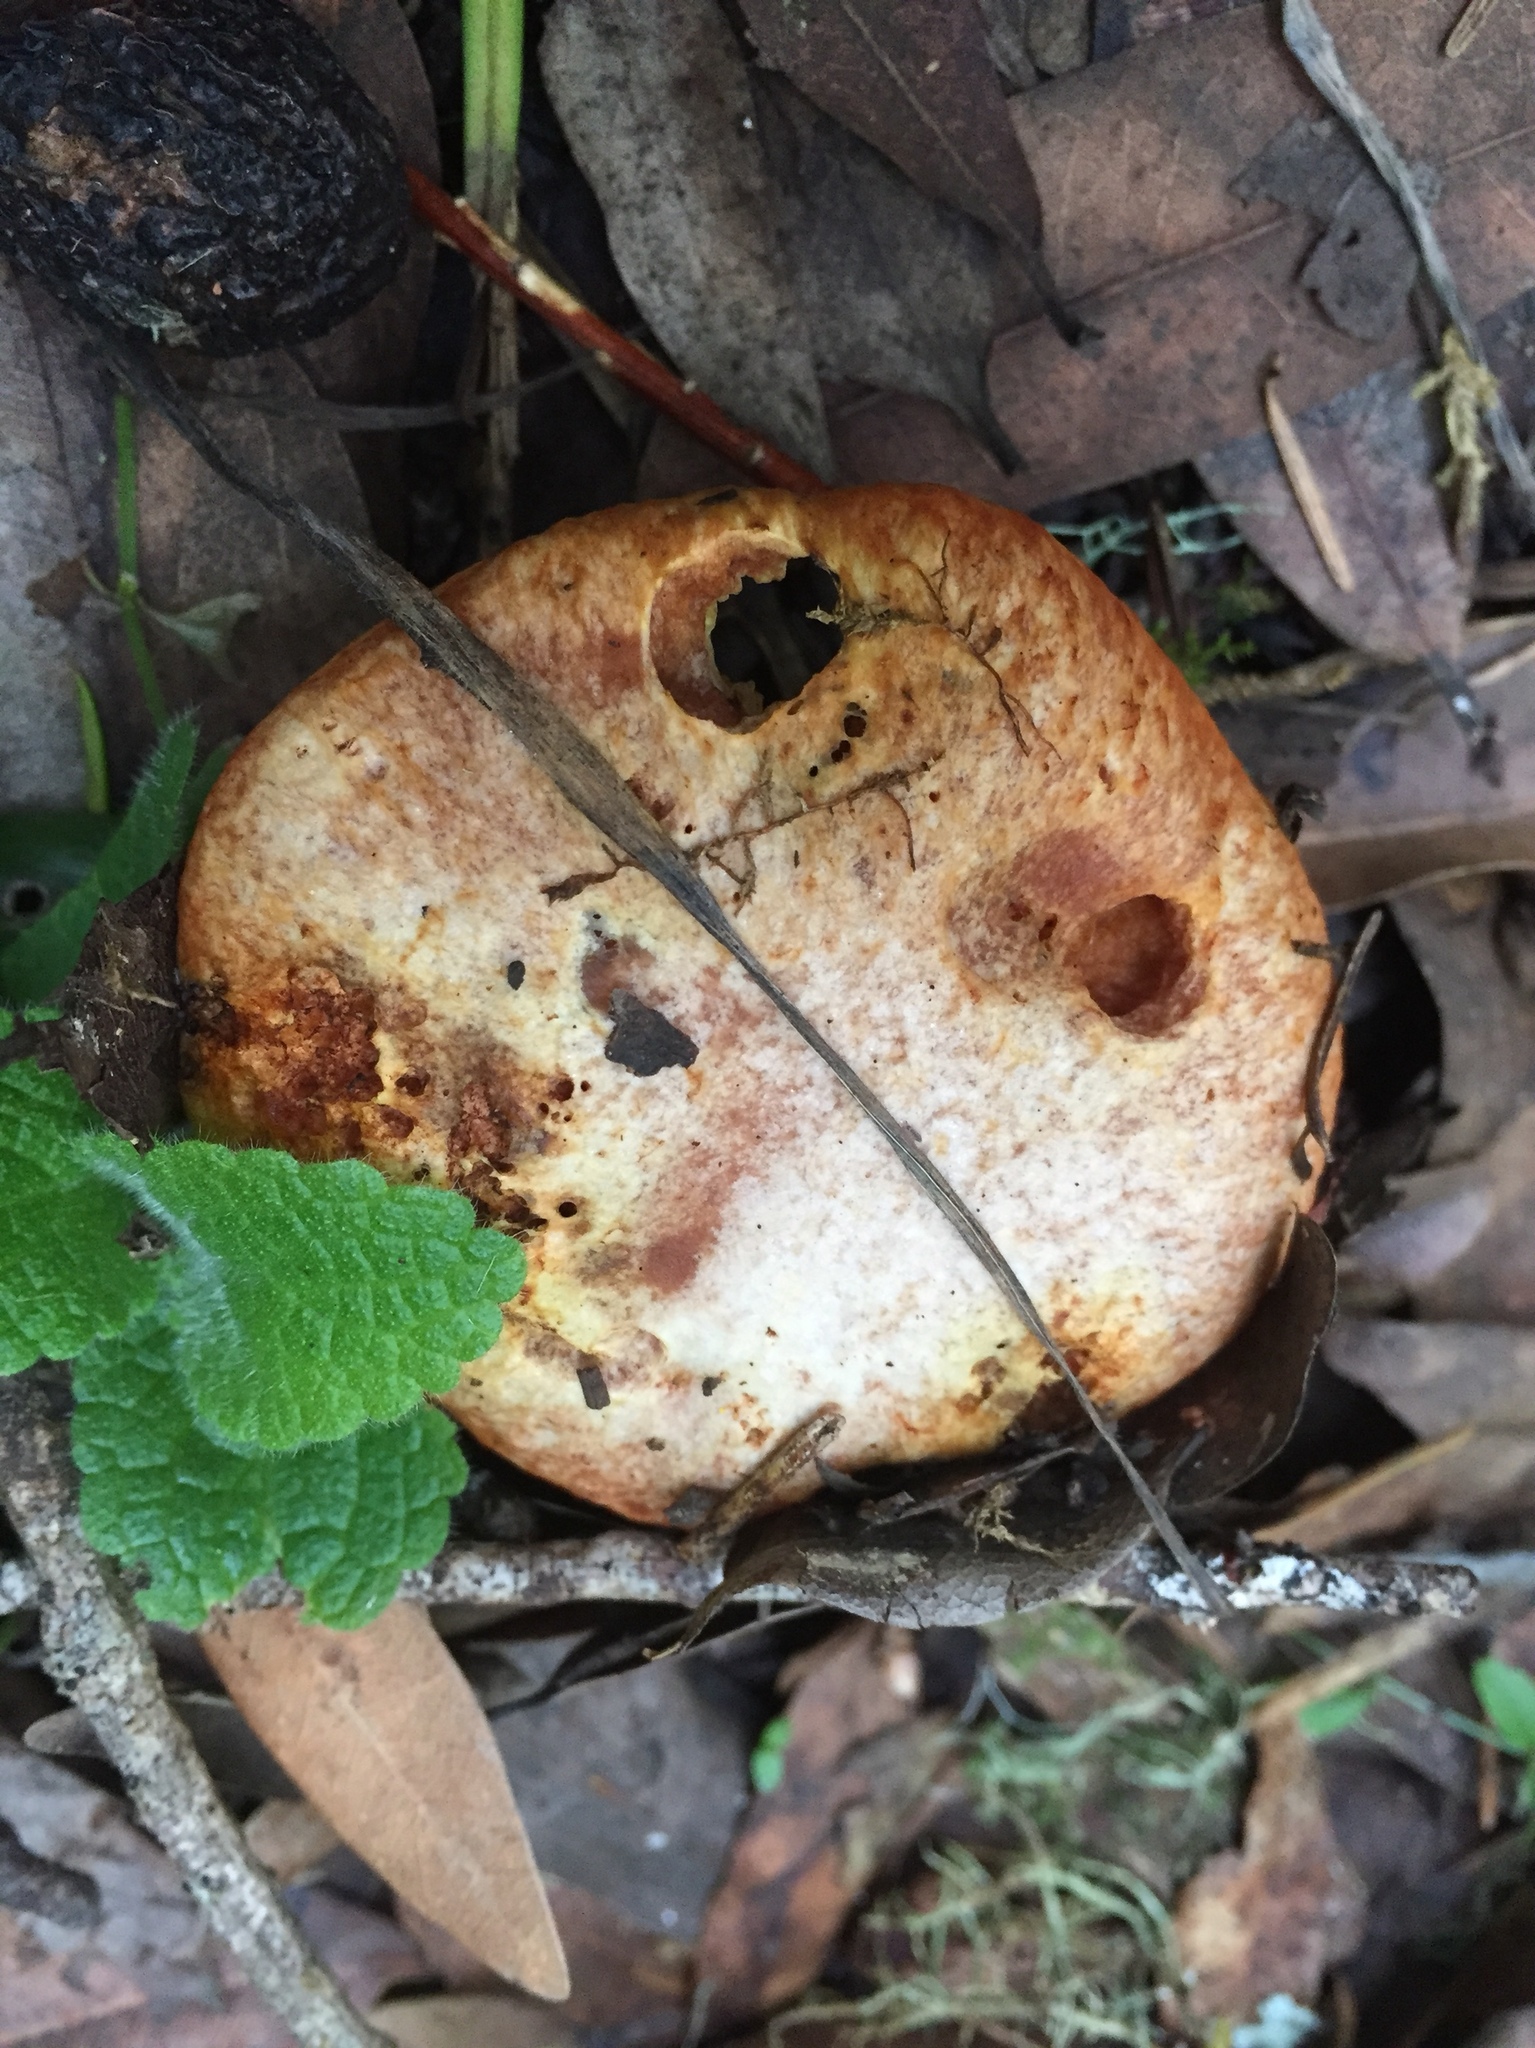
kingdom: Fungi
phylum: Basidiomycota
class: Agaricomycetes
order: Boletales
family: Suillaceae
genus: Suillus
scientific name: Suillus caerulescens
